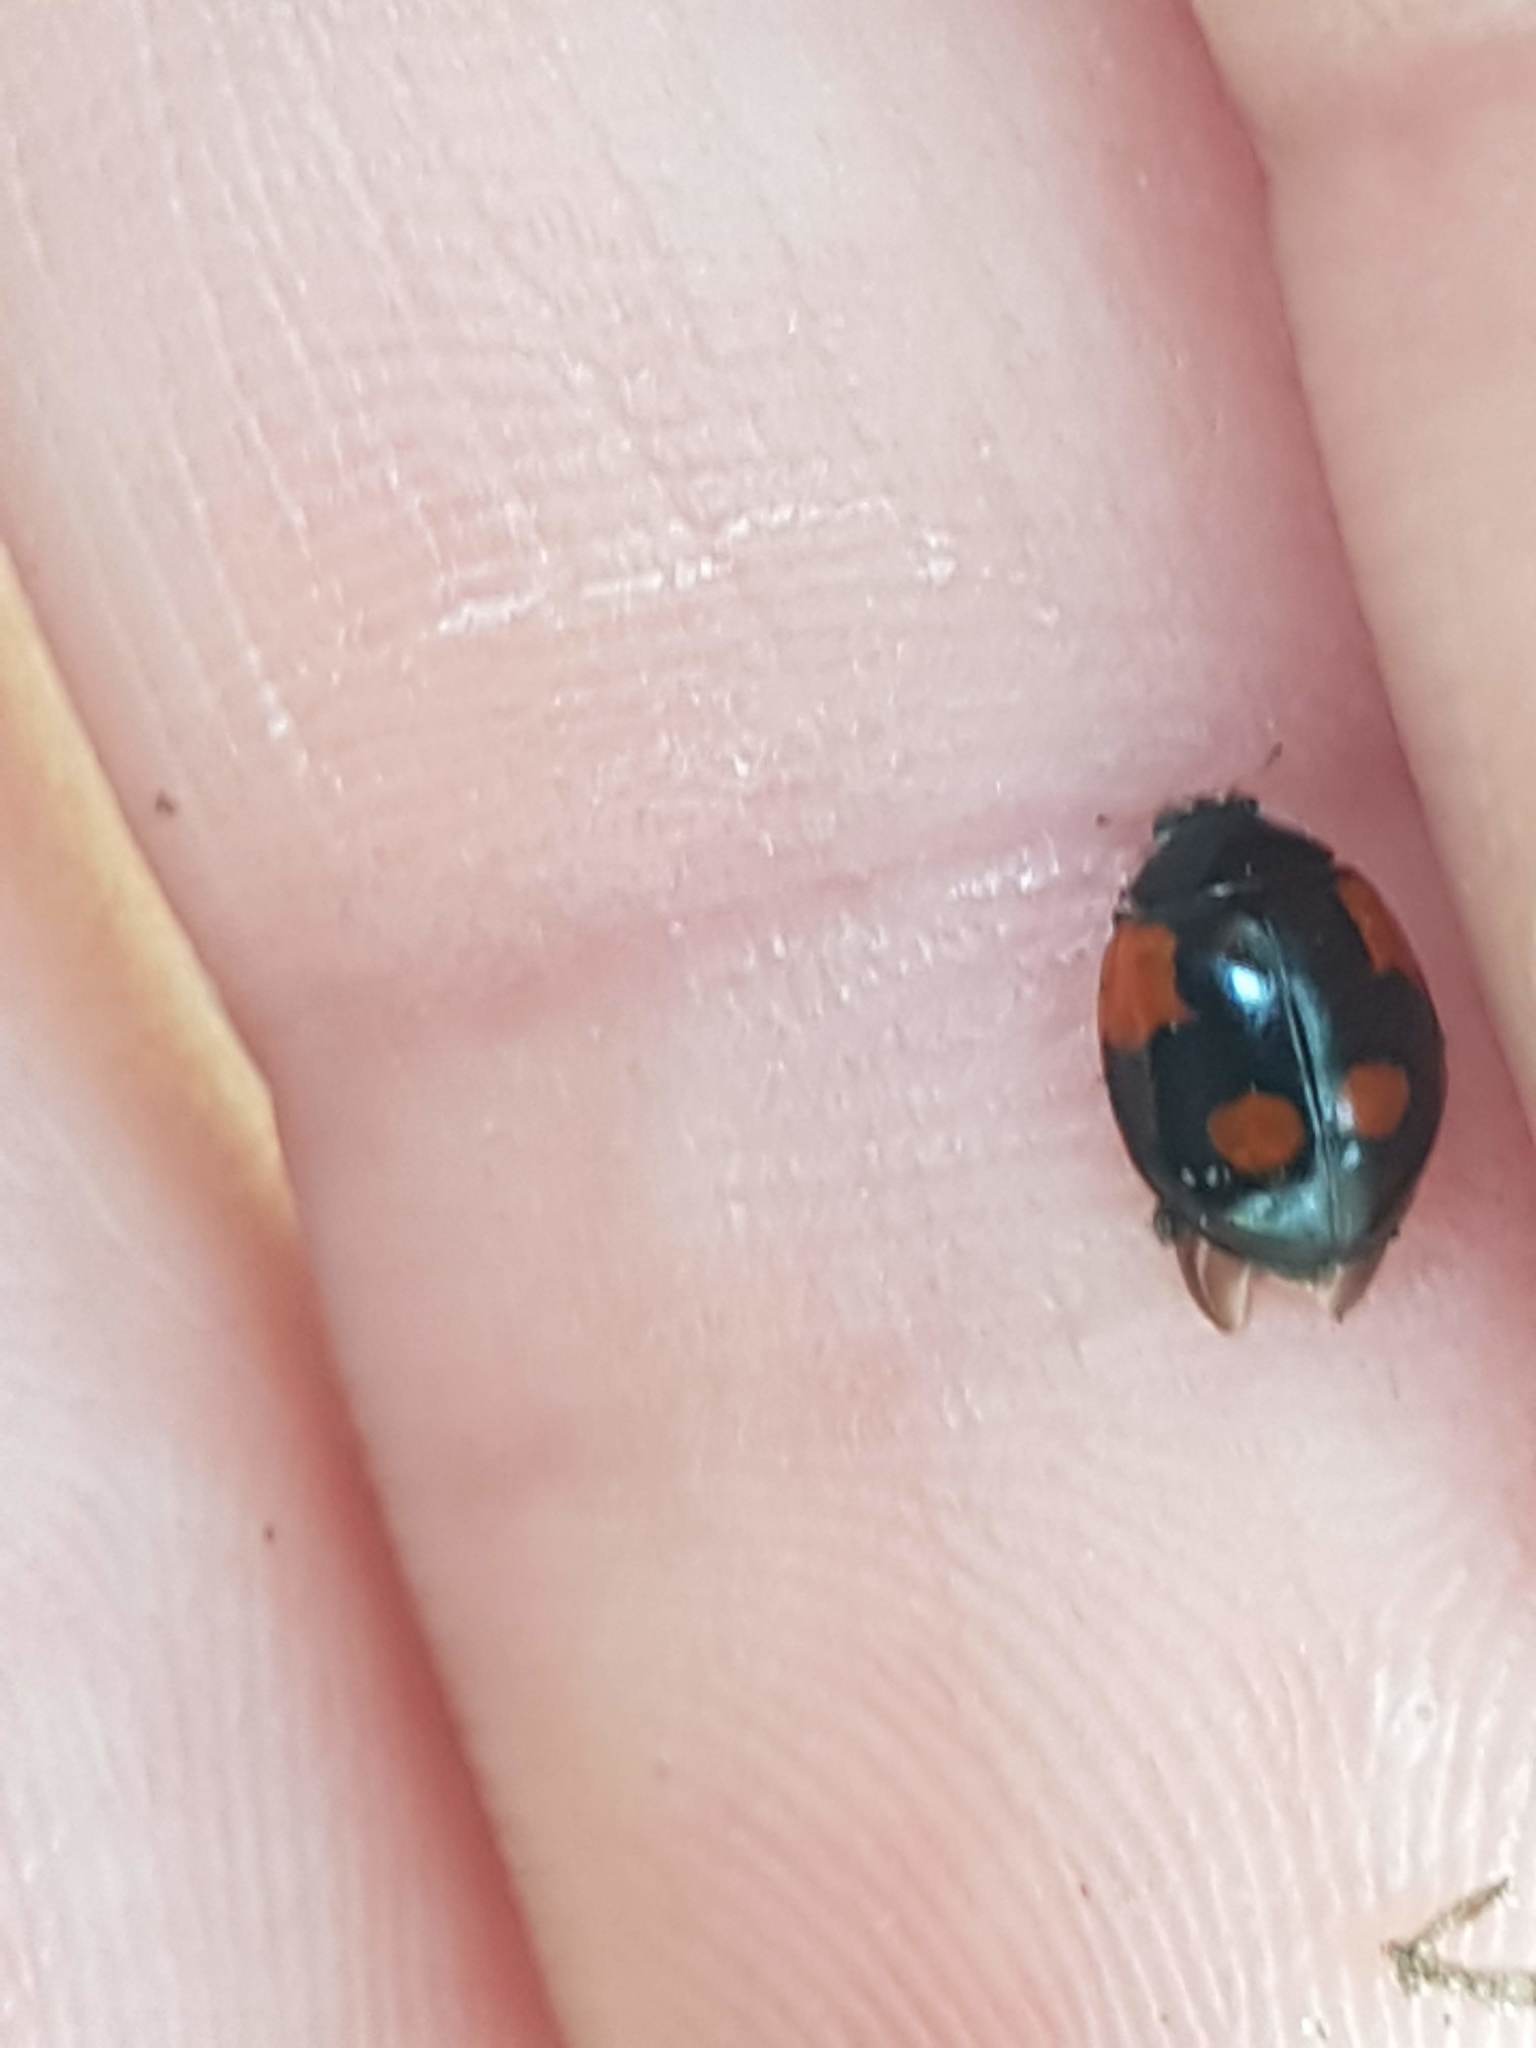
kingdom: Animalia
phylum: Arthropoda
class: Insecta
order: Coleoptera
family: Coccinellidae
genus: Adalia
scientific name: Adalia bipunctata
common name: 2-spot ladybird
